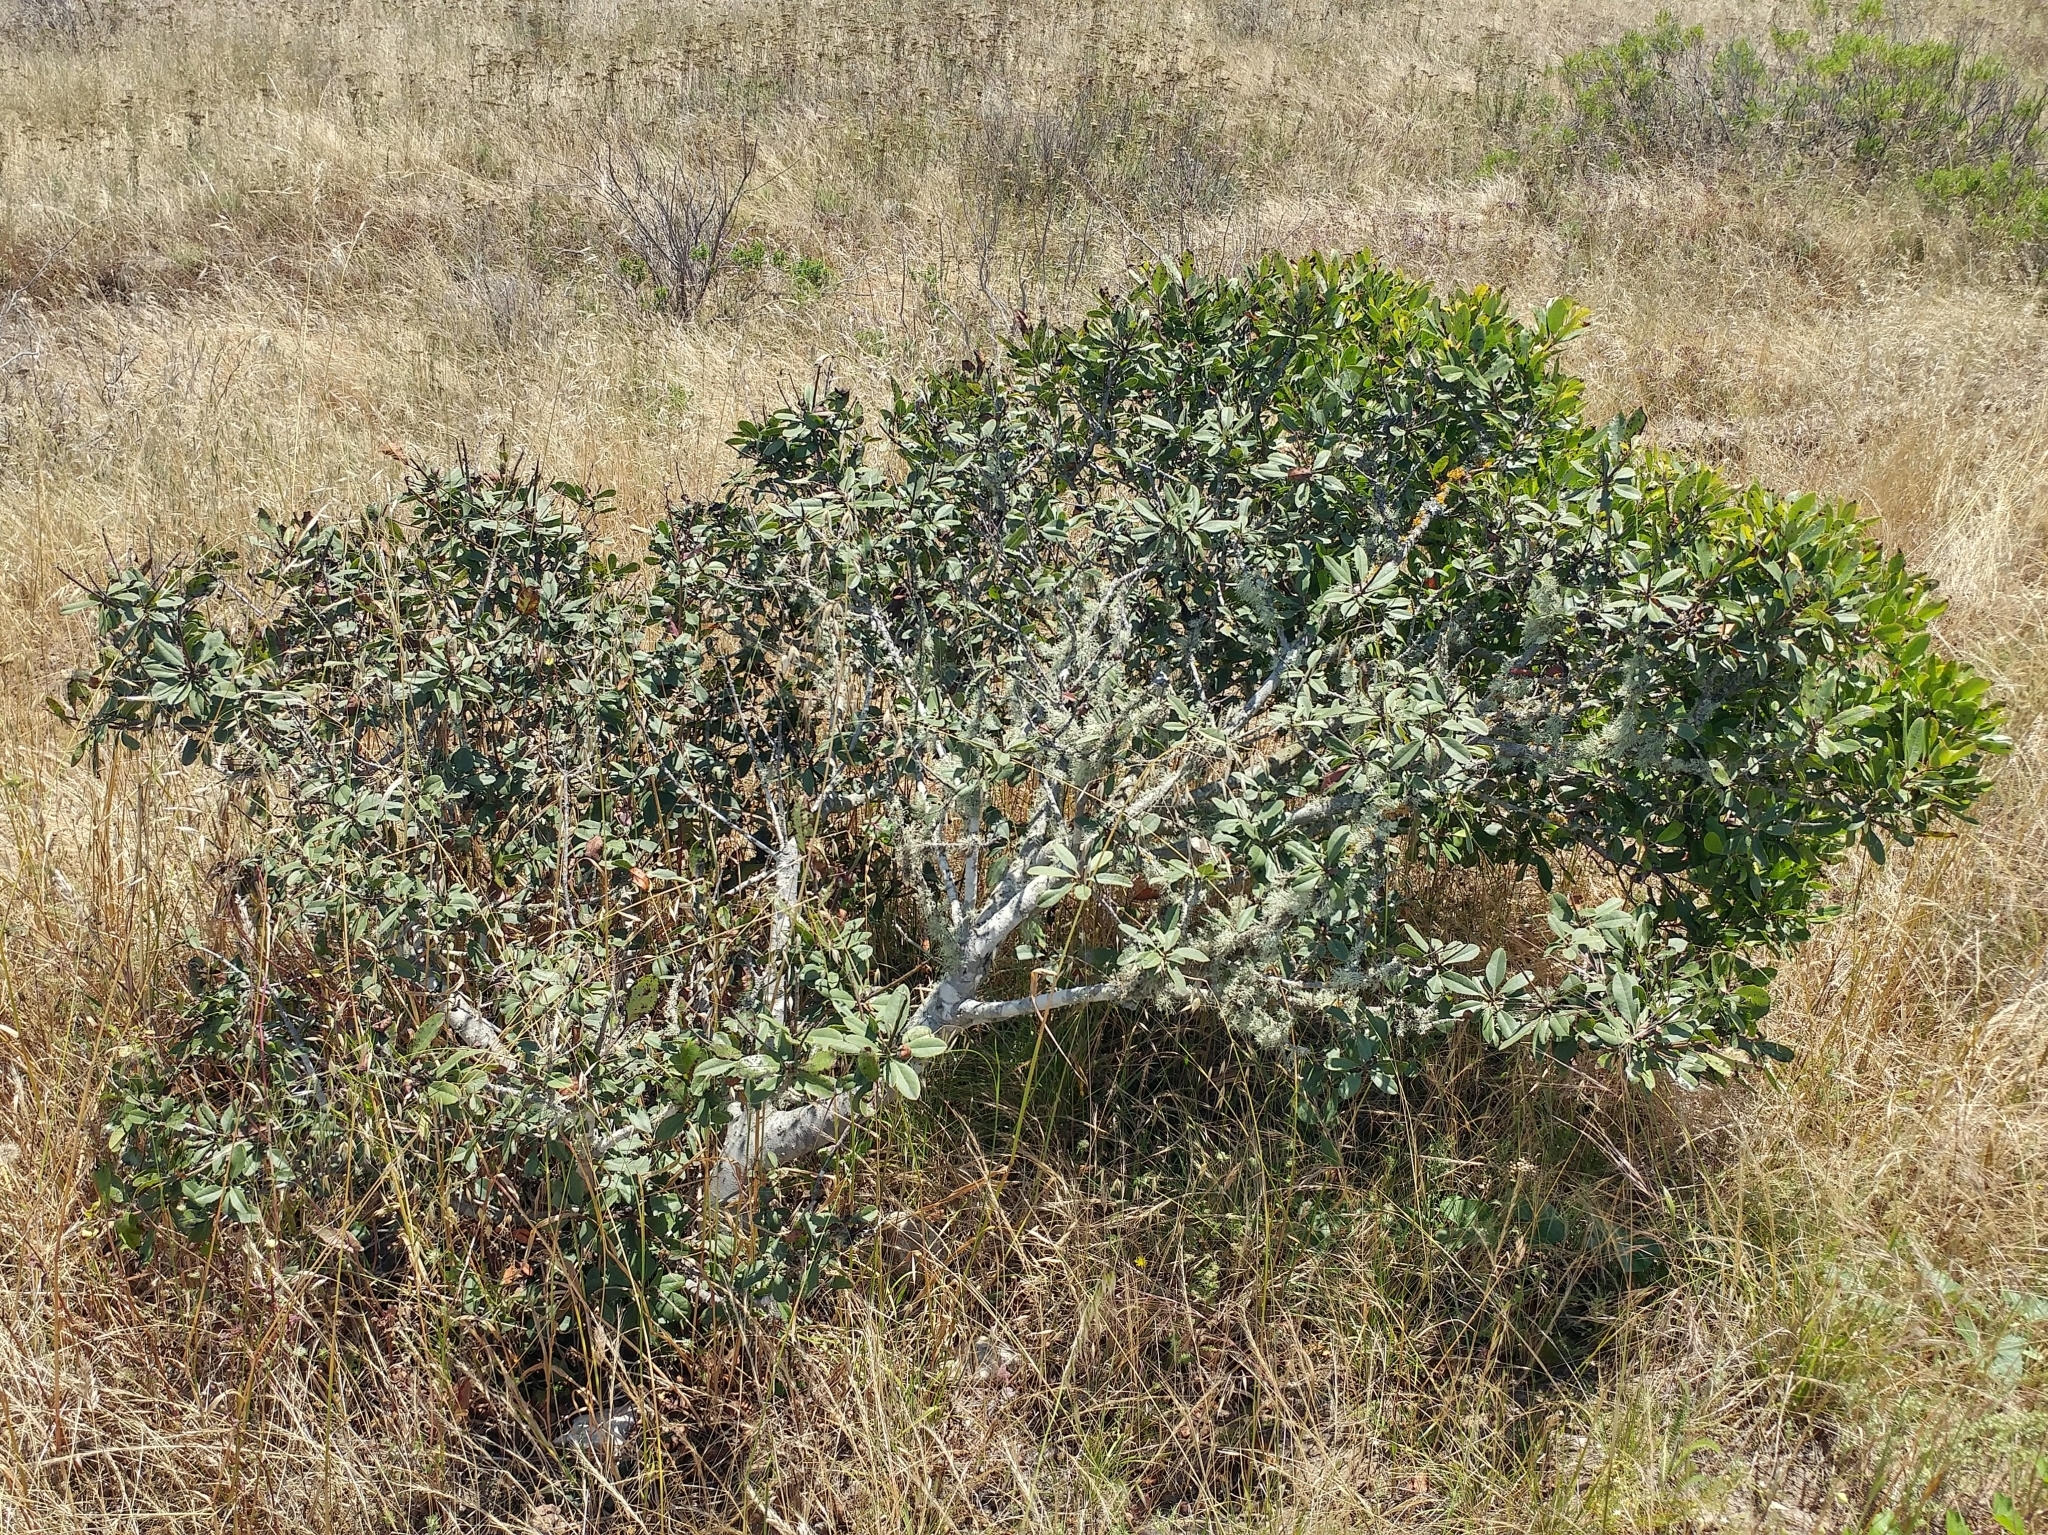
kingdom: Plantae
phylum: Tracheophyta
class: Magnoliopsida
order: Rosales
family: Rosaceae
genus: Heteromeles
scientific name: Heteromeles arbutifolia
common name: California-holly
